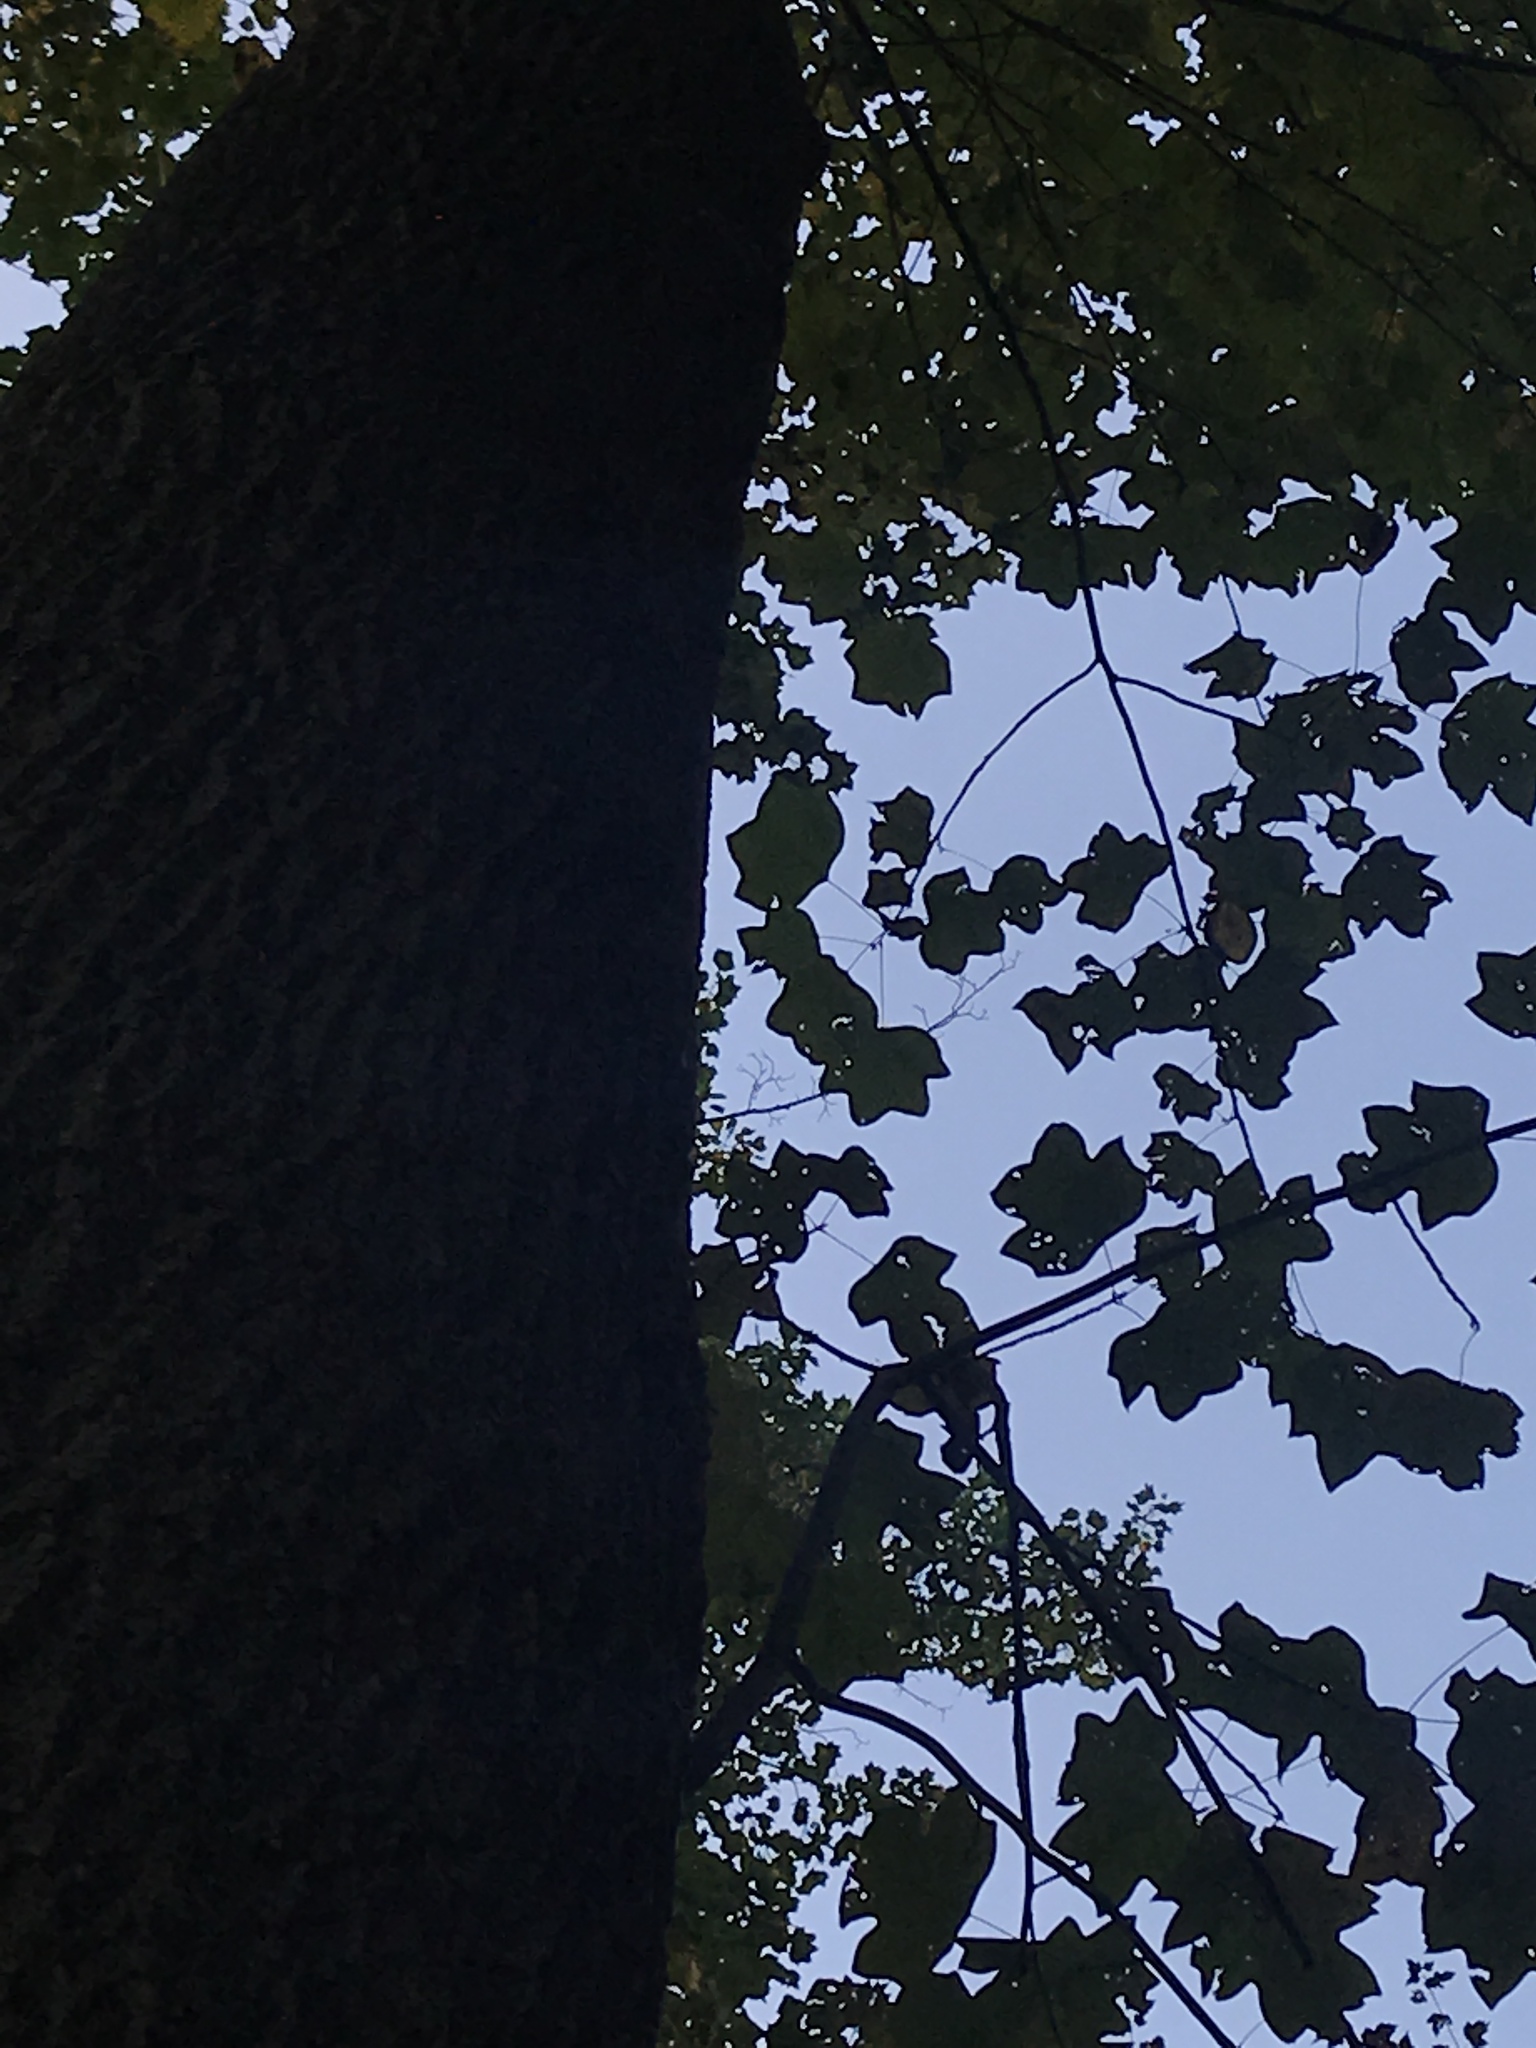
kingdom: Plantae
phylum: Tracheophyta
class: Magnoliopsida
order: Magnoliales
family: Magnoliaceae
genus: Liriodendron
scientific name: Liriodendron tulipifera
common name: Tulip tree
